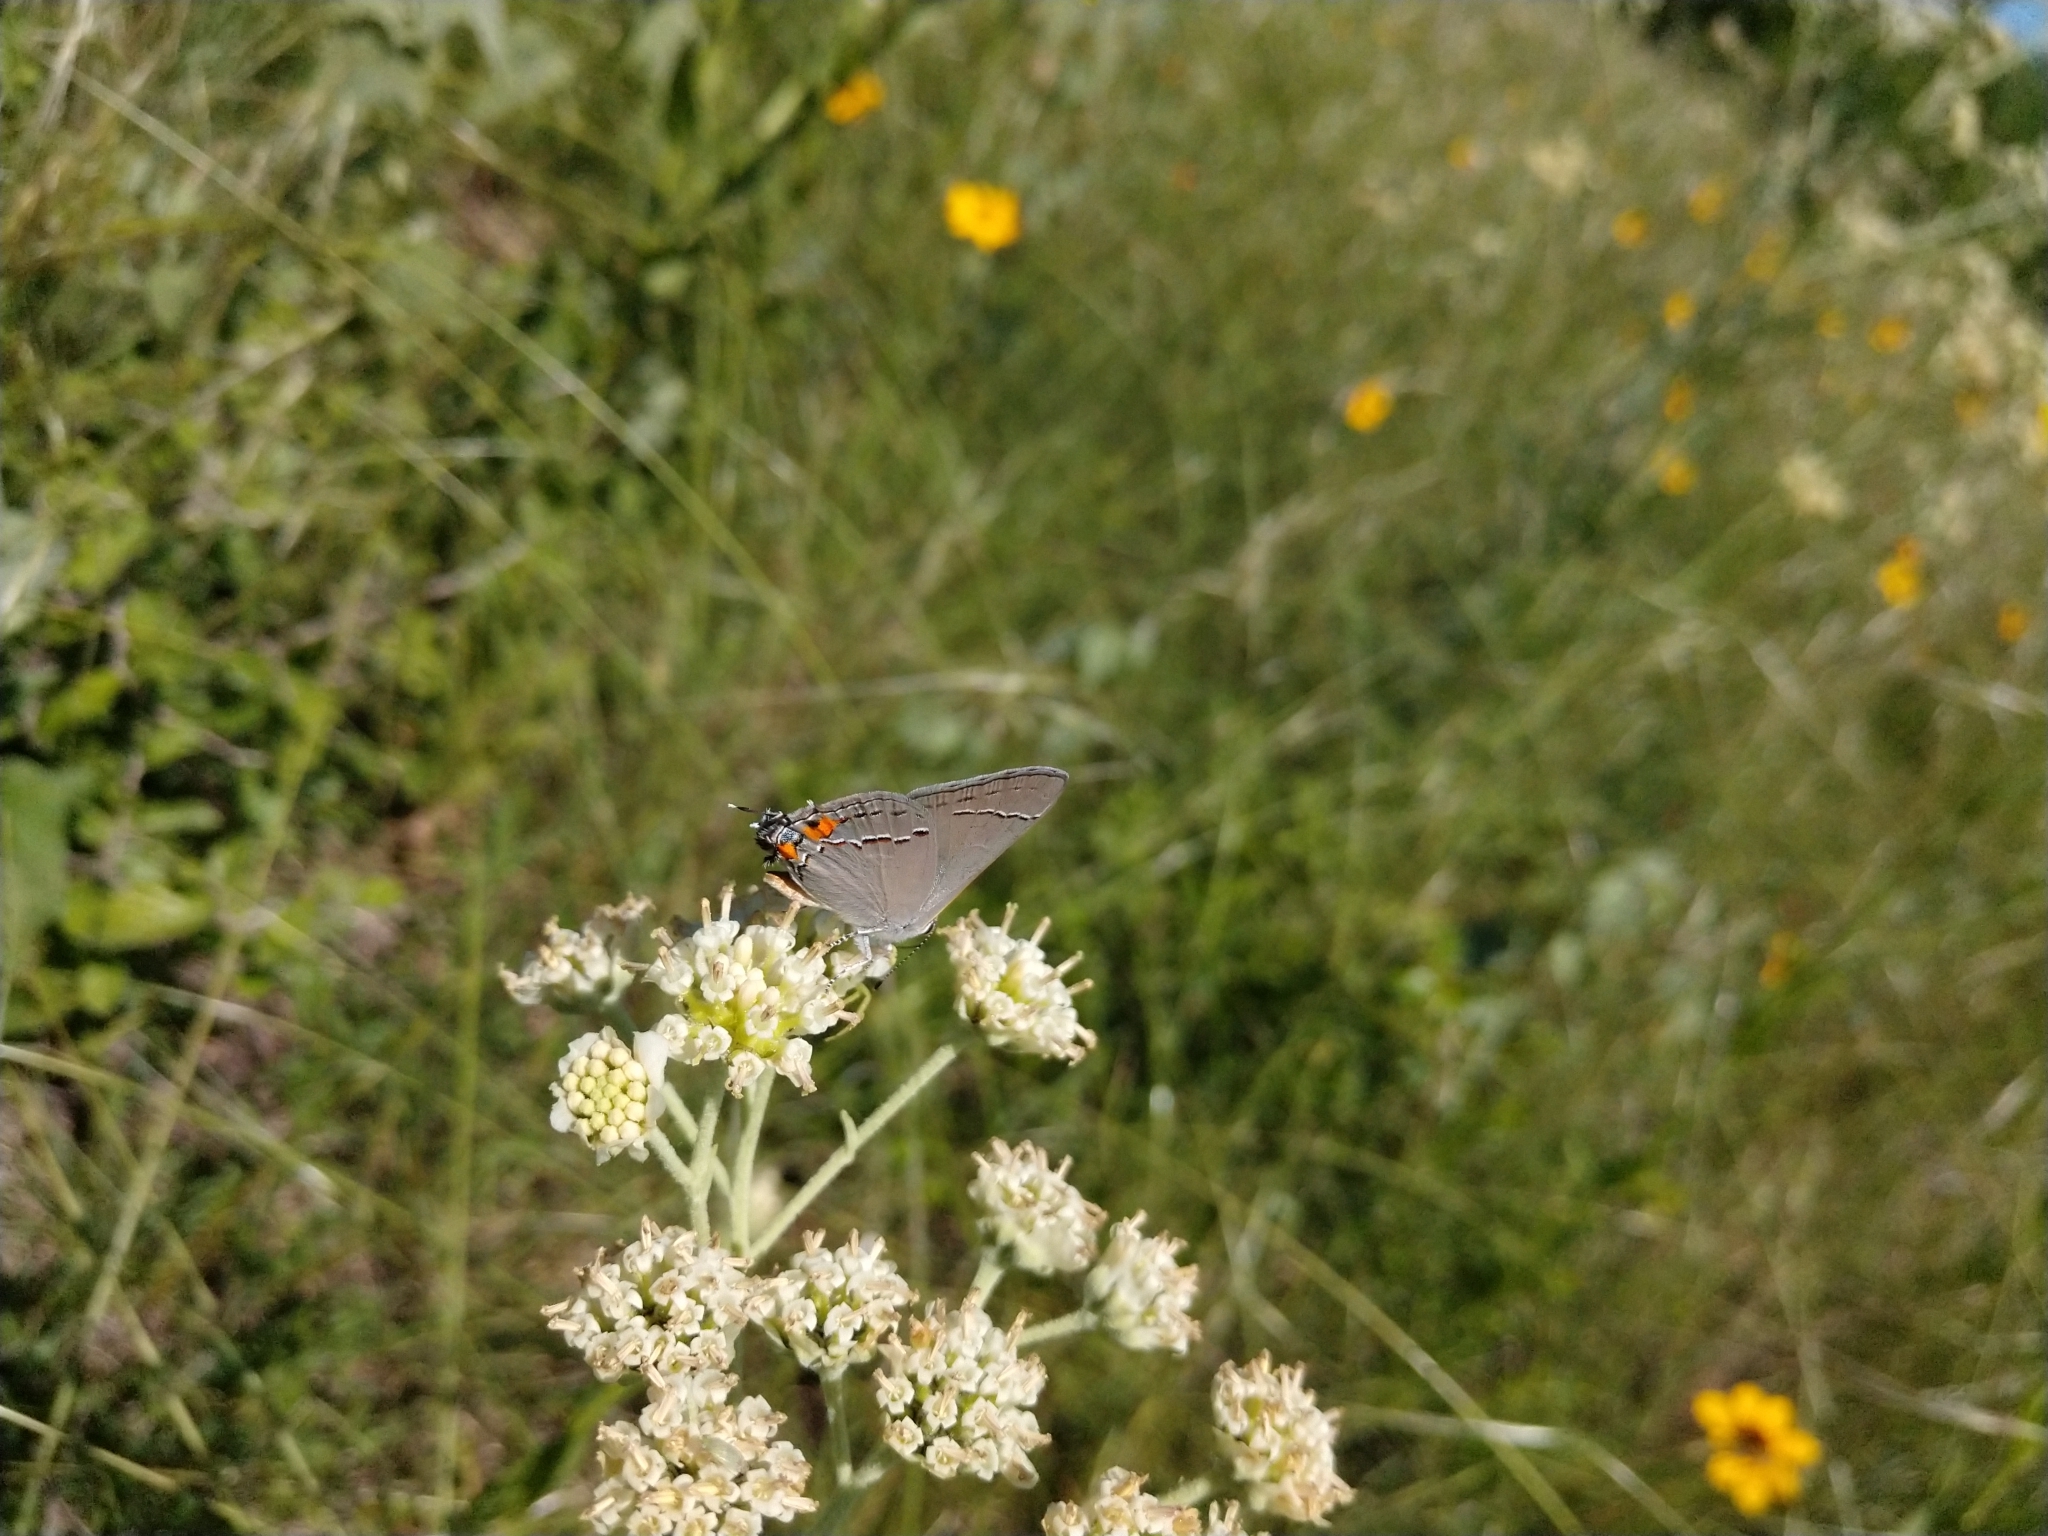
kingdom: Animalia
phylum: Arthropoda
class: Insecta
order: Lepidoptera
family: Lycaenidae
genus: Strymon
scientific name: Strymon melinus
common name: Gray hairstreak
